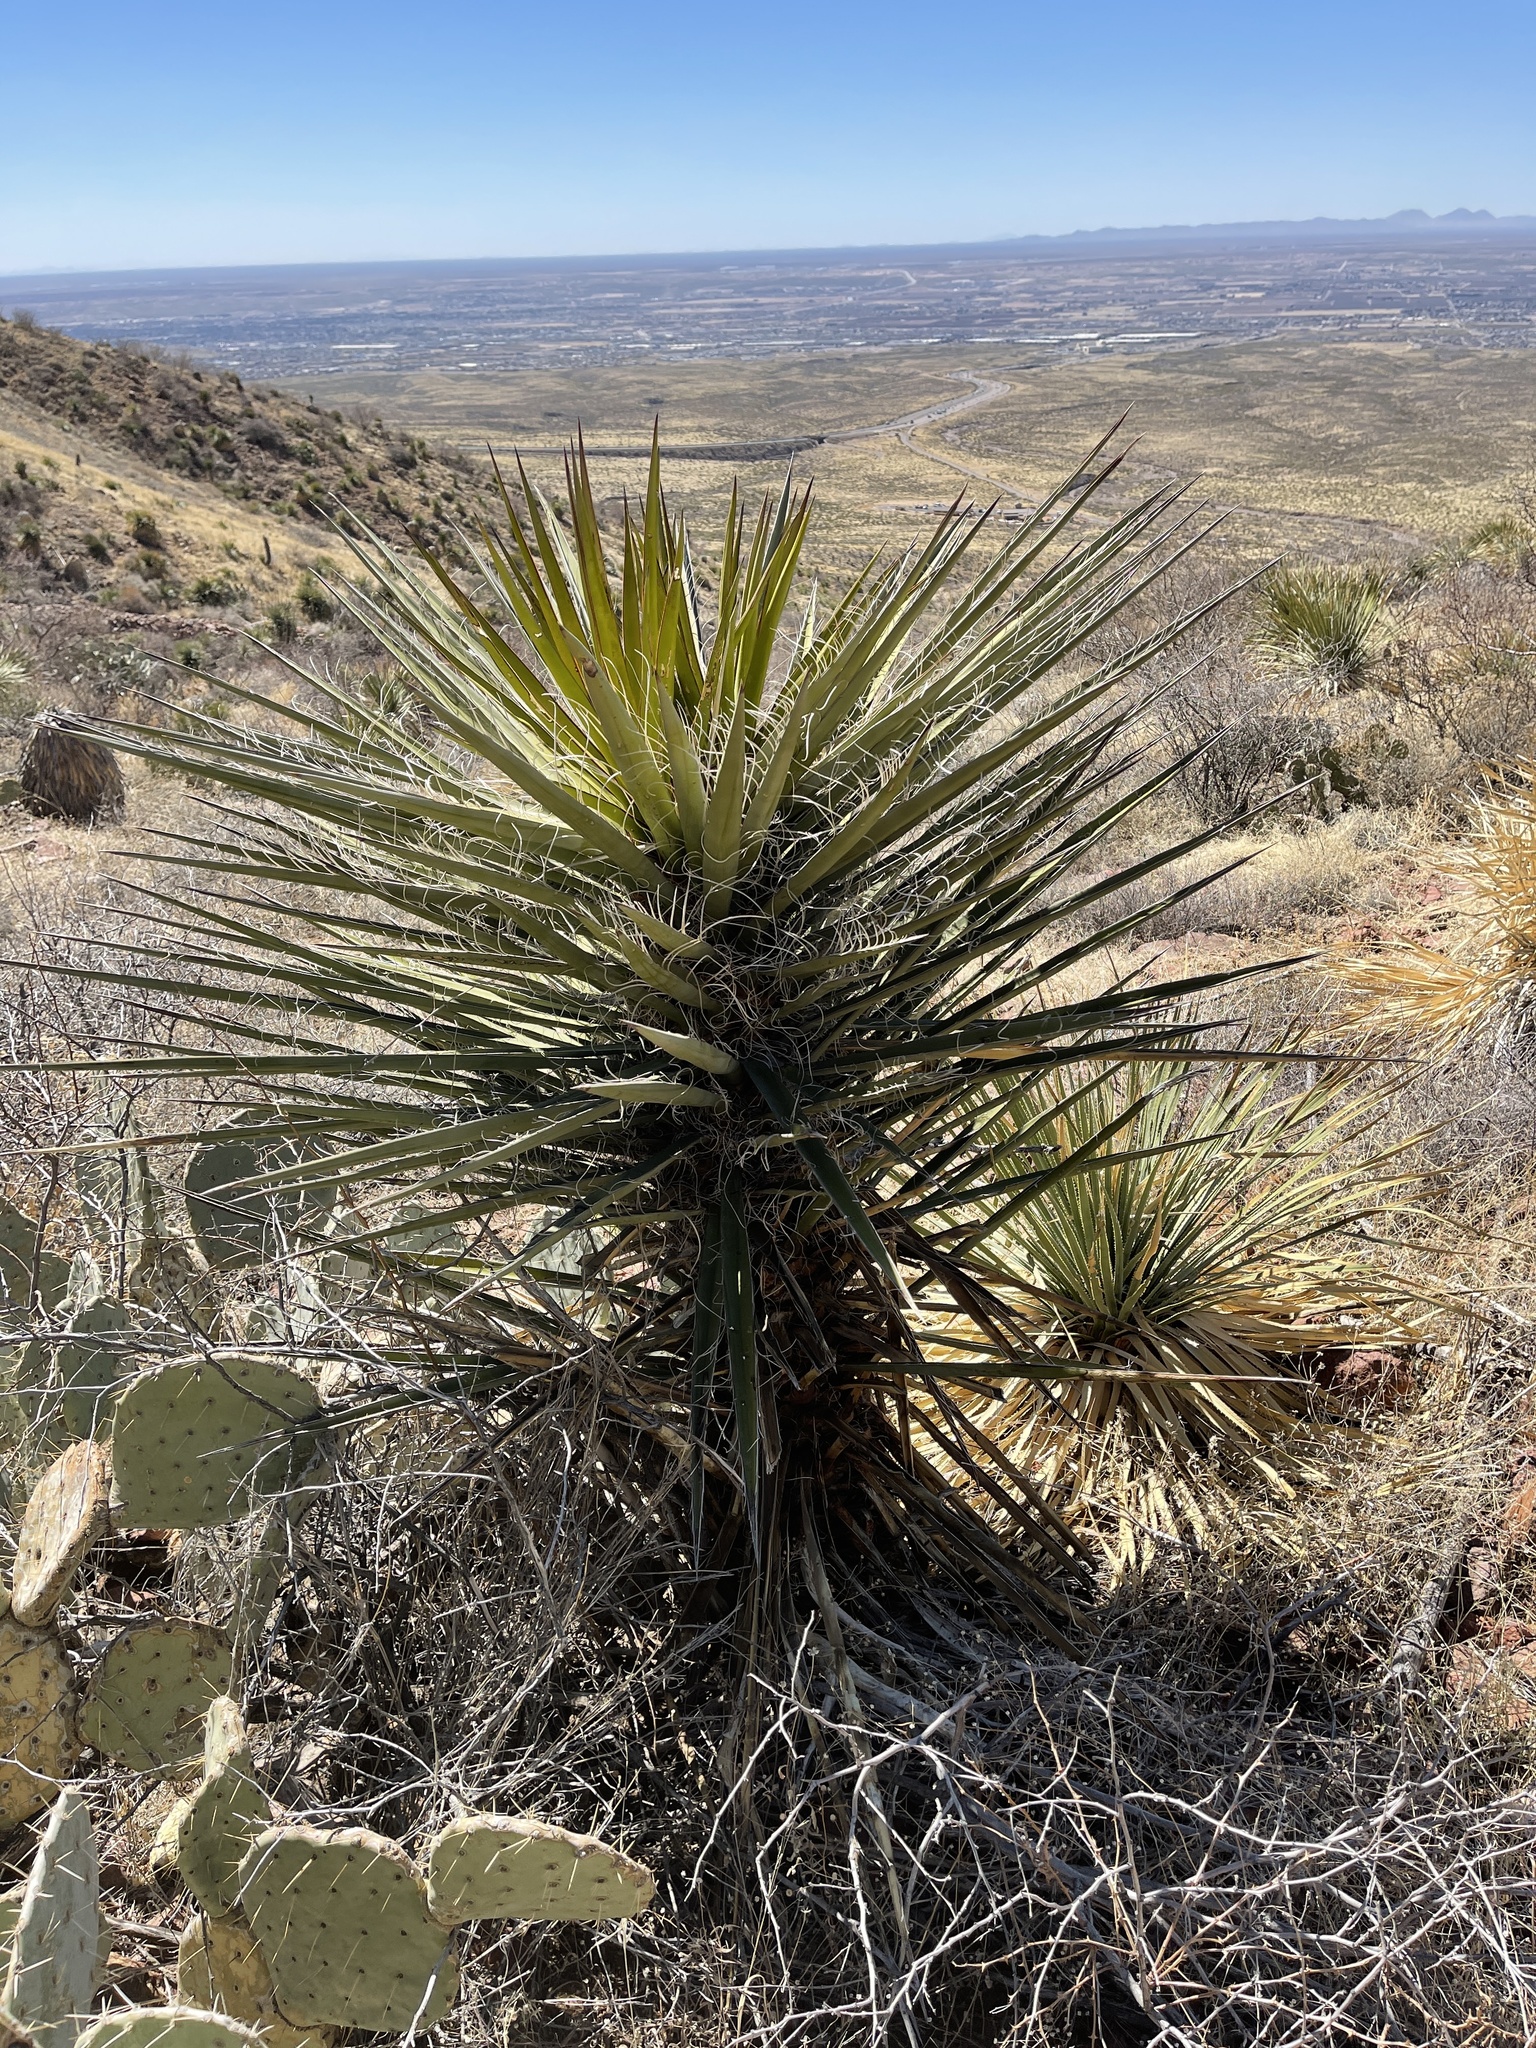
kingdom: Plantae
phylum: Tracheophyta
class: Liliopsida
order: Asparagales
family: Asparagaceae
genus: Yucca
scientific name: Yucca treculiana
